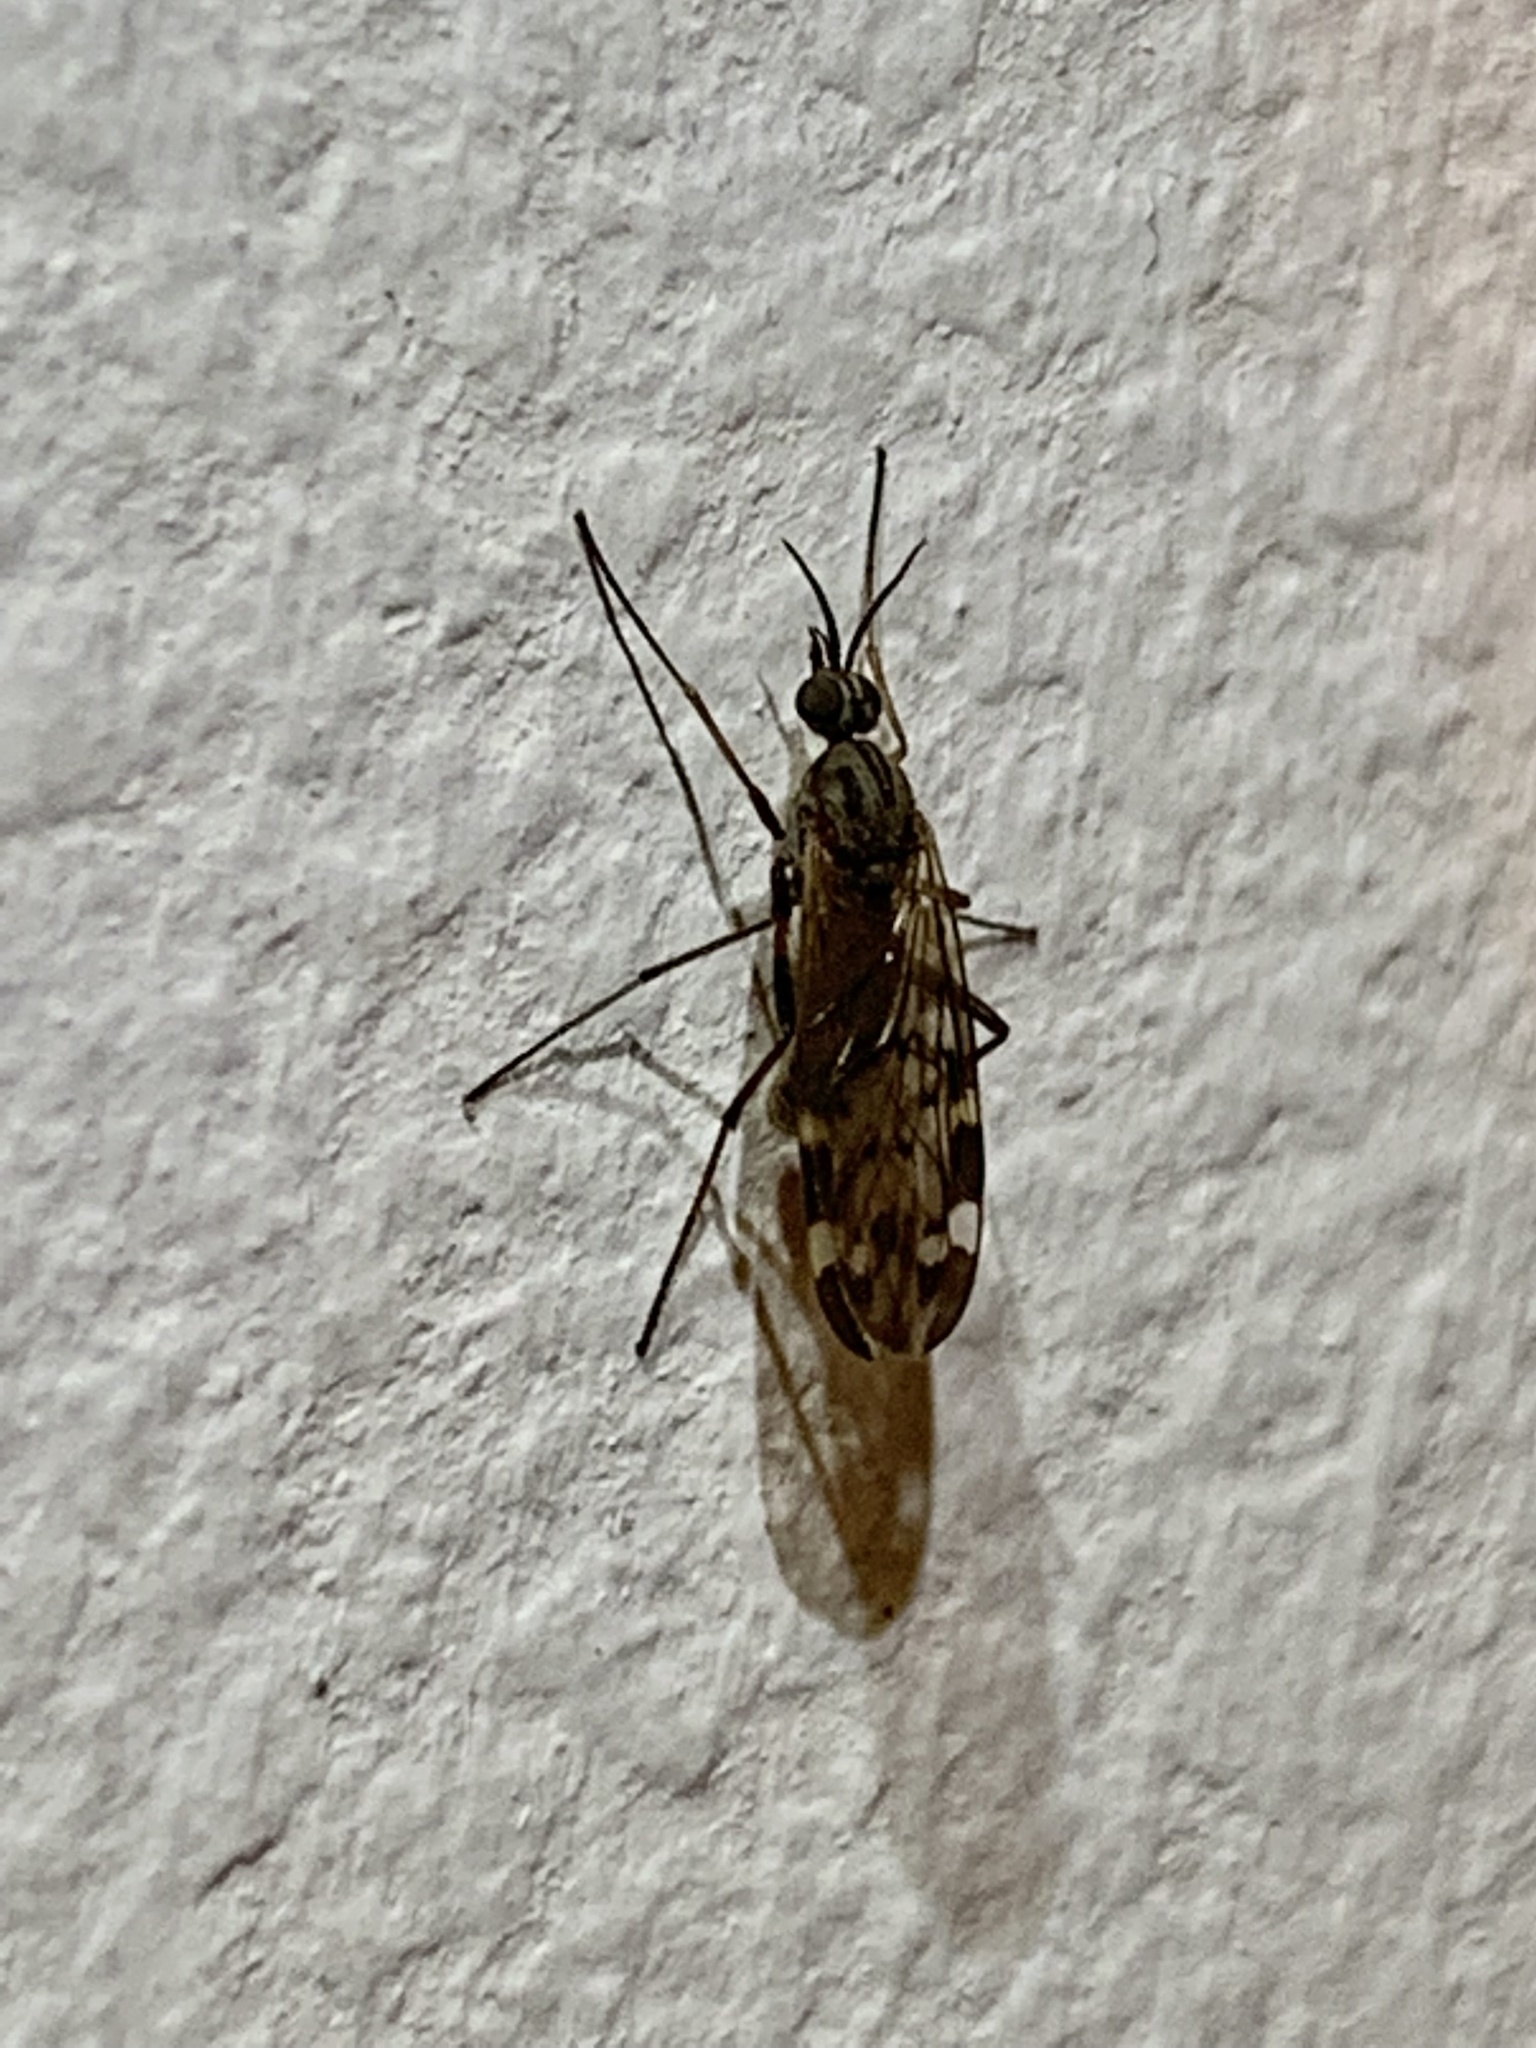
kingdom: Animalia
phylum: Arthropoda
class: Insecta
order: Diptera
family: Anisopodidae
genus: Sylvicola
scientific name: Sylvicola alternata
